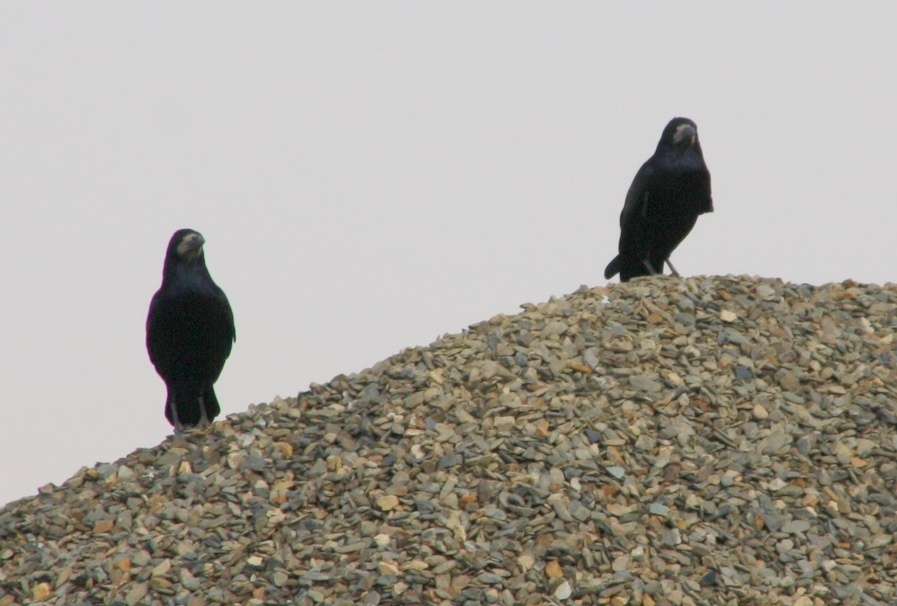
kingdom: Animalia
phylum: Chordata
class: Aves
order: Passeriformes
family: Corvidae
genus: Corvus
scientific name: Corvus frugilegus
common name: Rook
